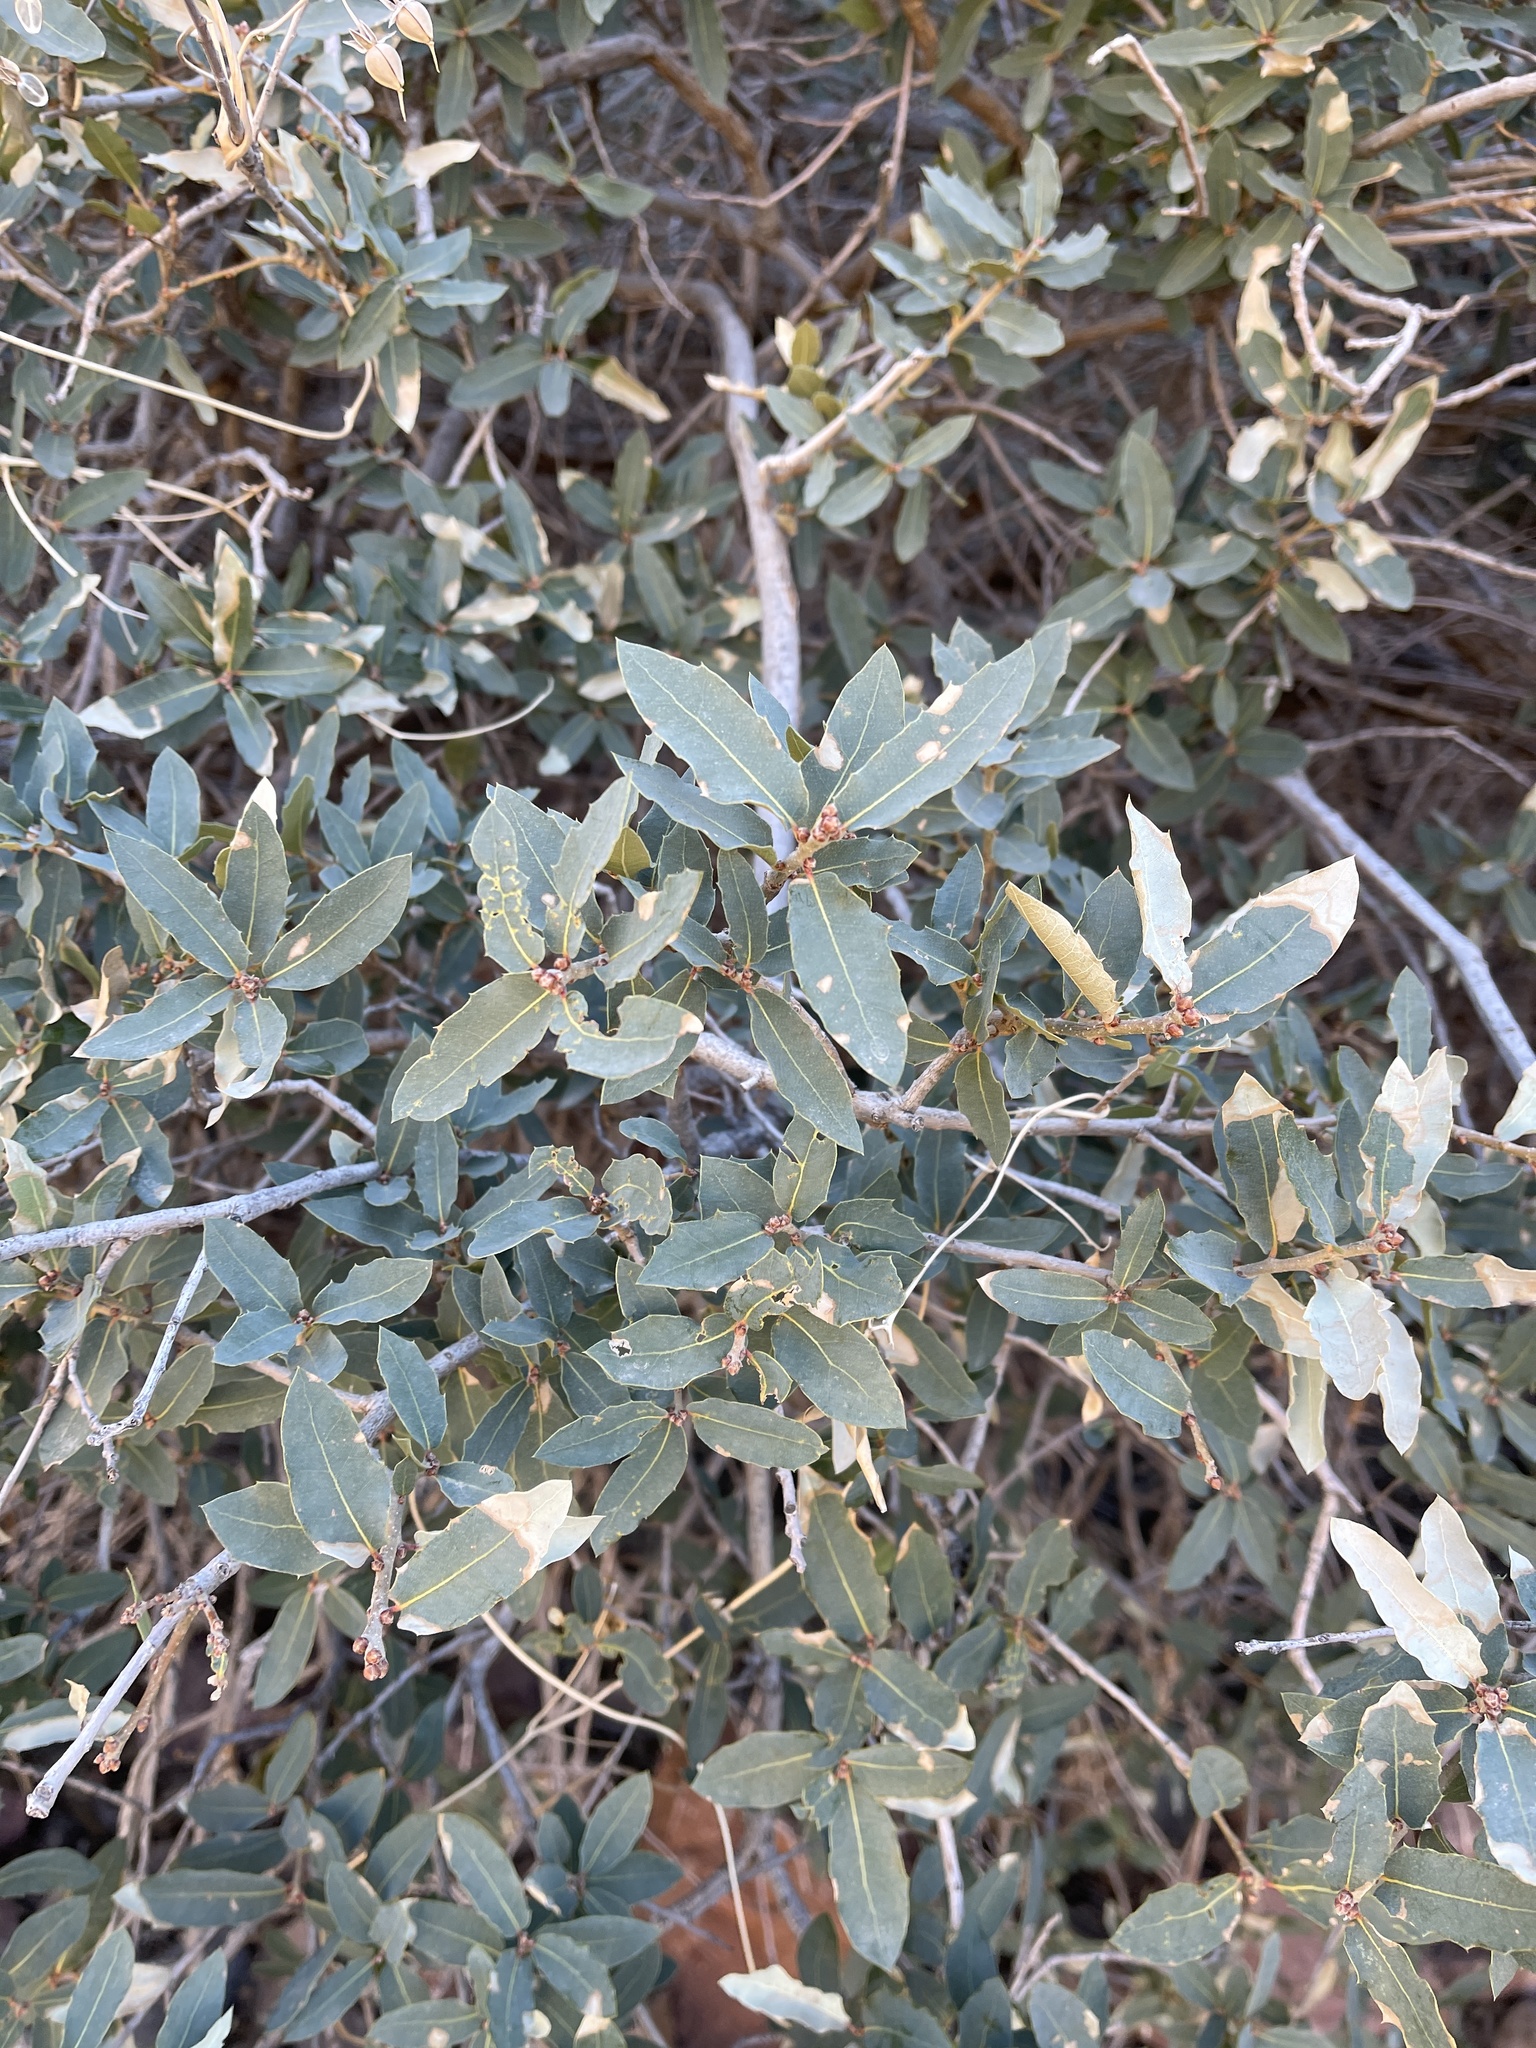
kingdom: Plantae
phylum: Tracheophyta
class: Magnoliopsida
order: Fagales
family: Fagaceae
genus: Quercus
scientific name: Quercus turbinella
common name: Sonoran scrub oak
